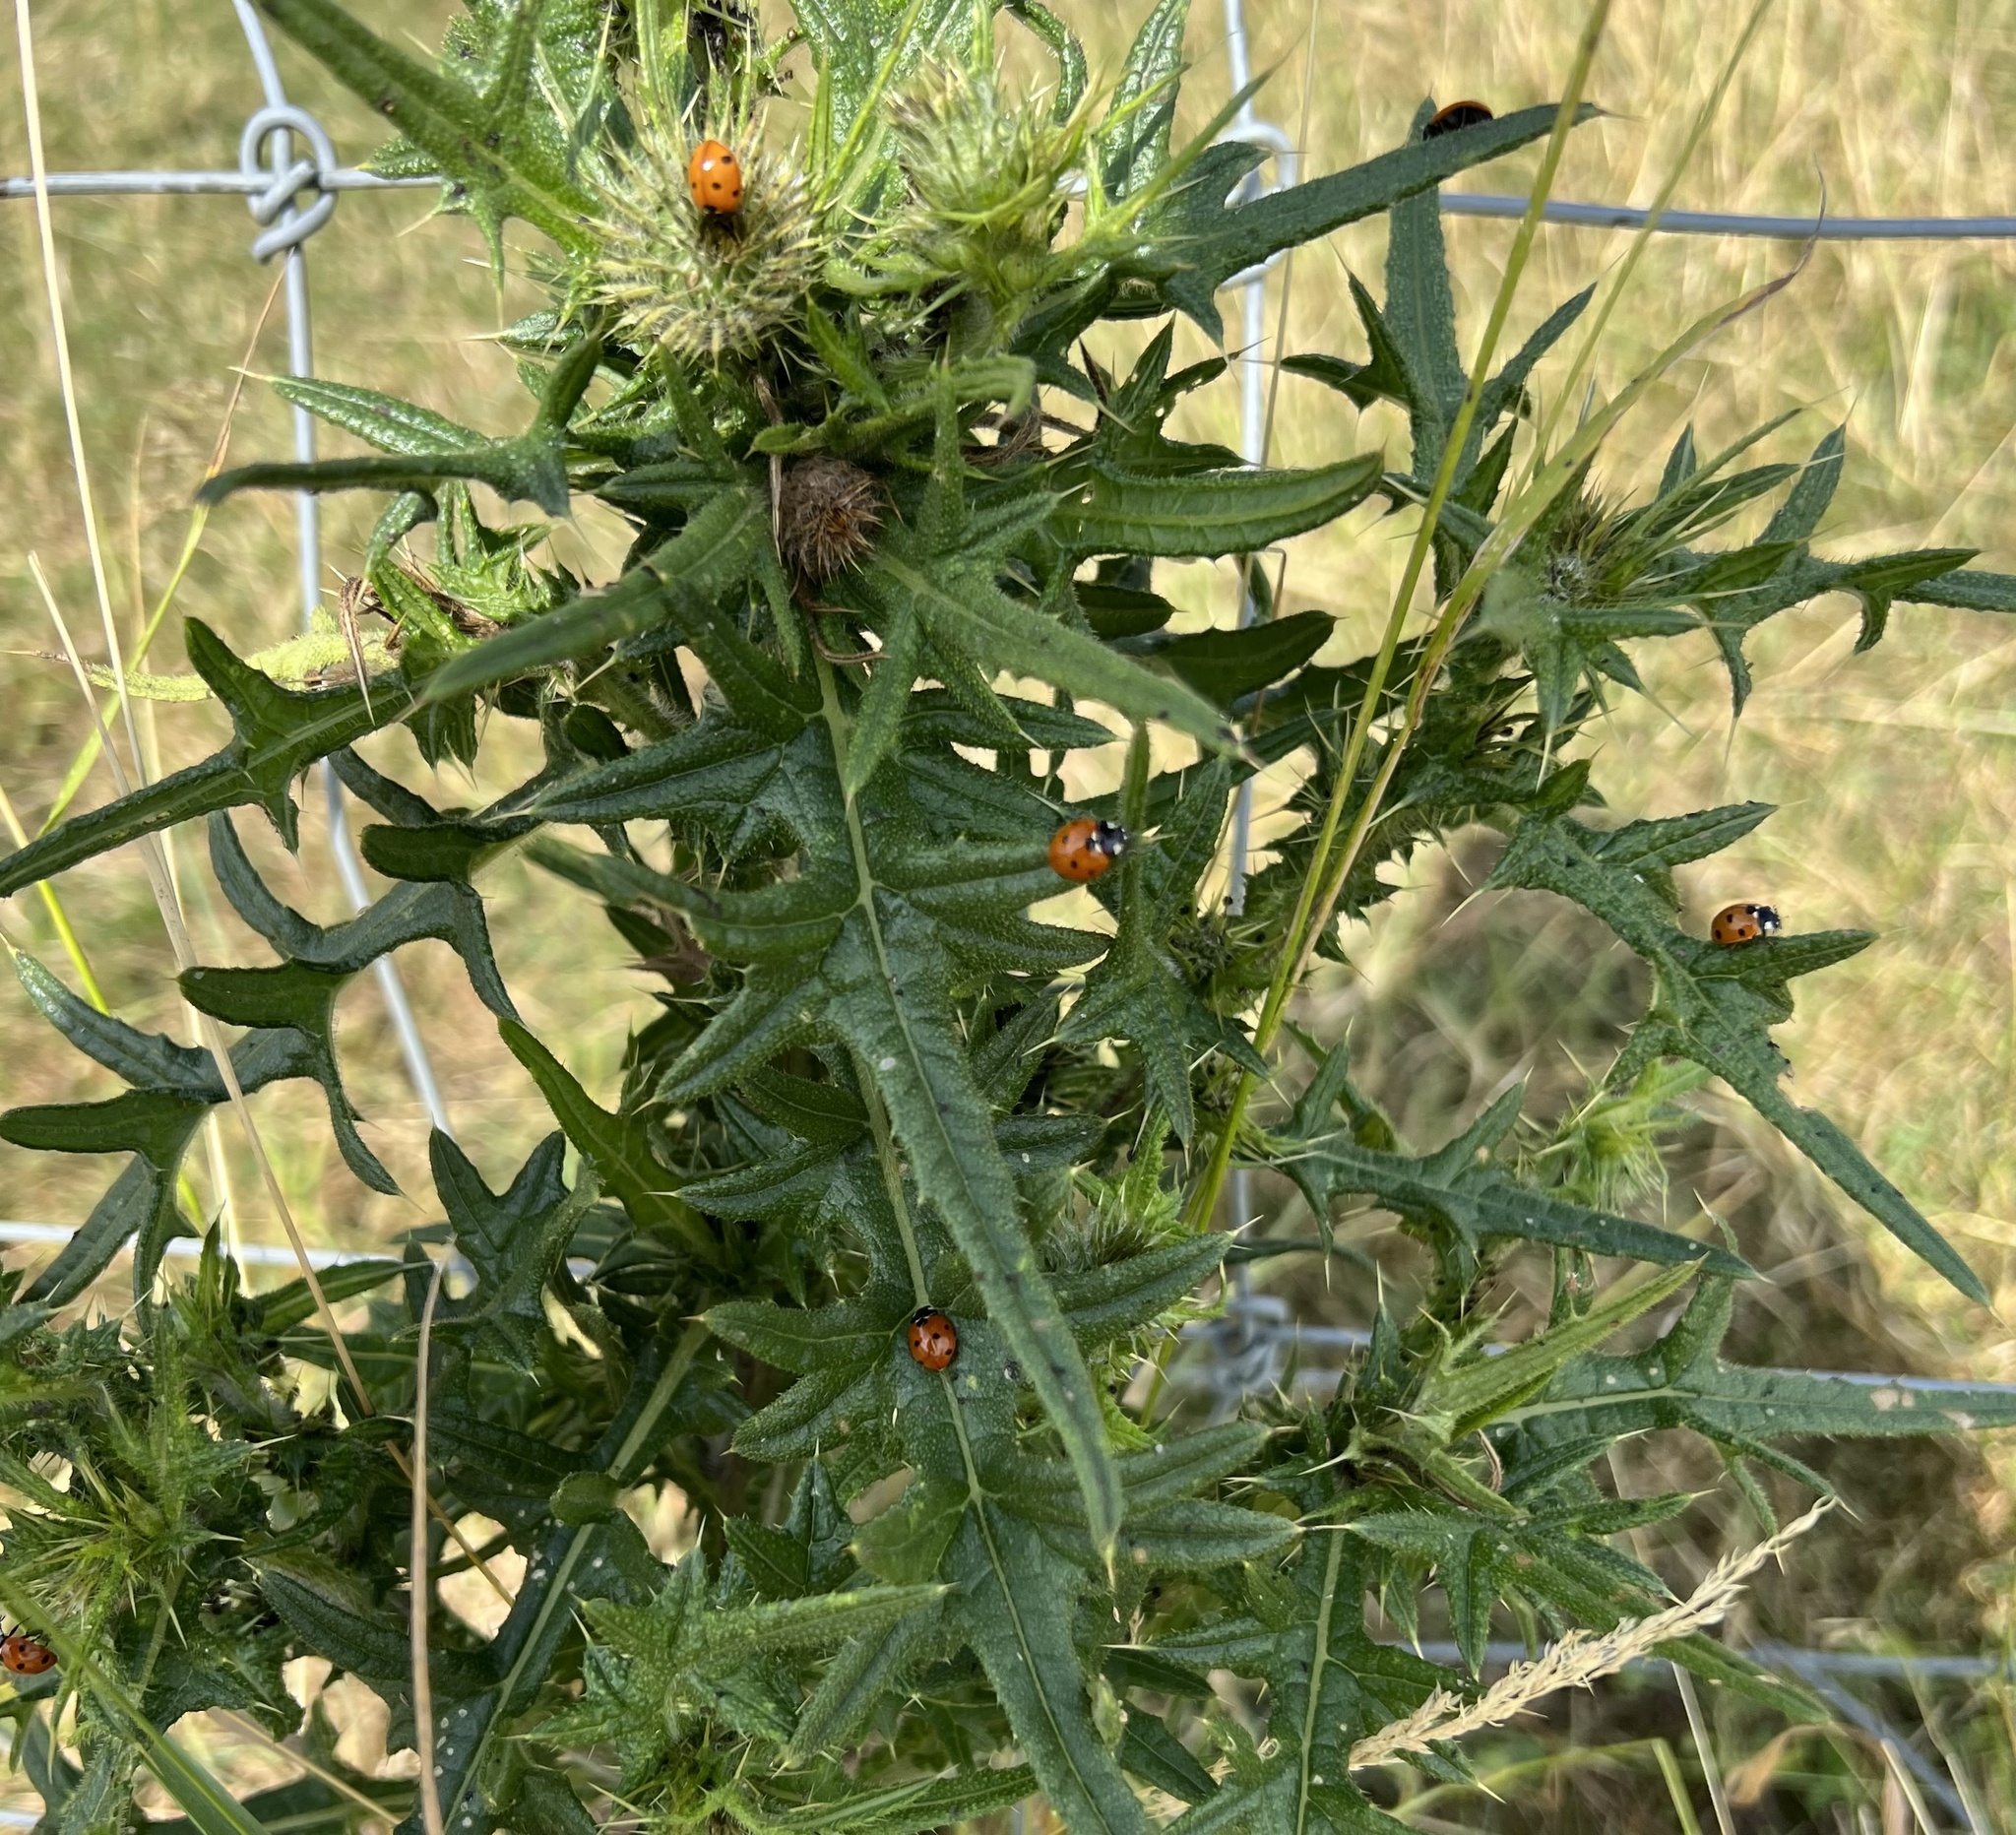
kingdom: Animalia
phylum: Arthropoda
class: Insecta
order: Coleoptera
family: Coccinellidae
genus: Coccinella
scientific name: Coccinella septempunctata
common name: Sevenspotted lady beetle
